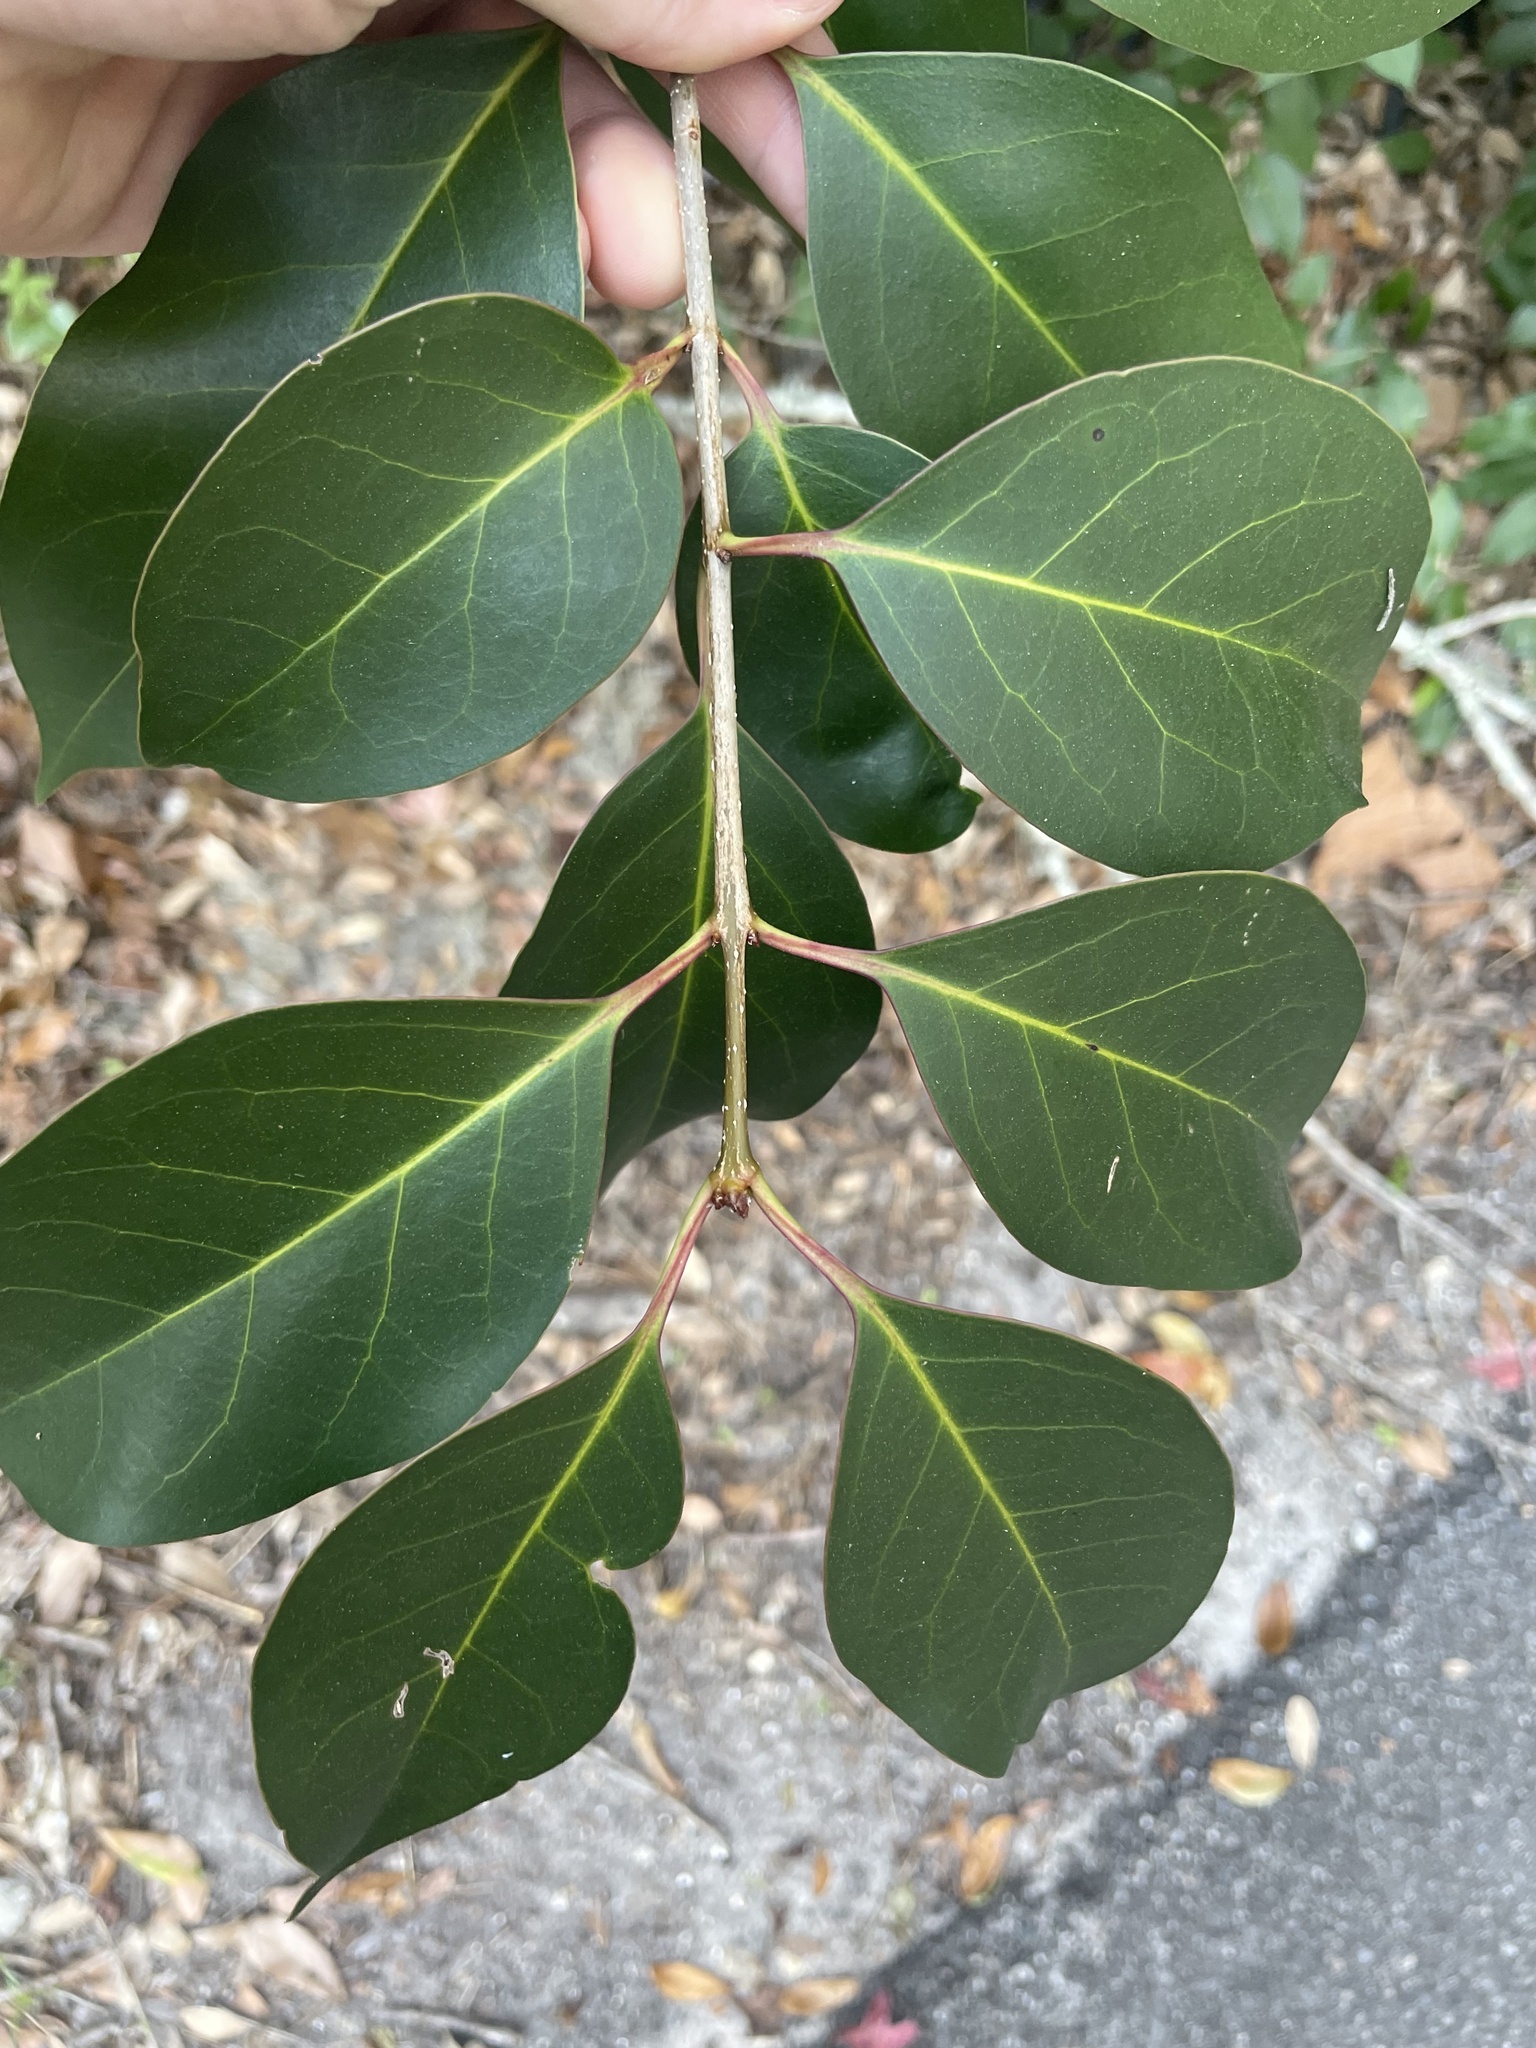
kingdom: Plantae
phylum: Tracheophyta
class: Magnoliopsida
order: Lamiales
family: Oleaceae
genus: Ligustrum
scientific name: Ligustrum lucidum
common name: Glossy privet
